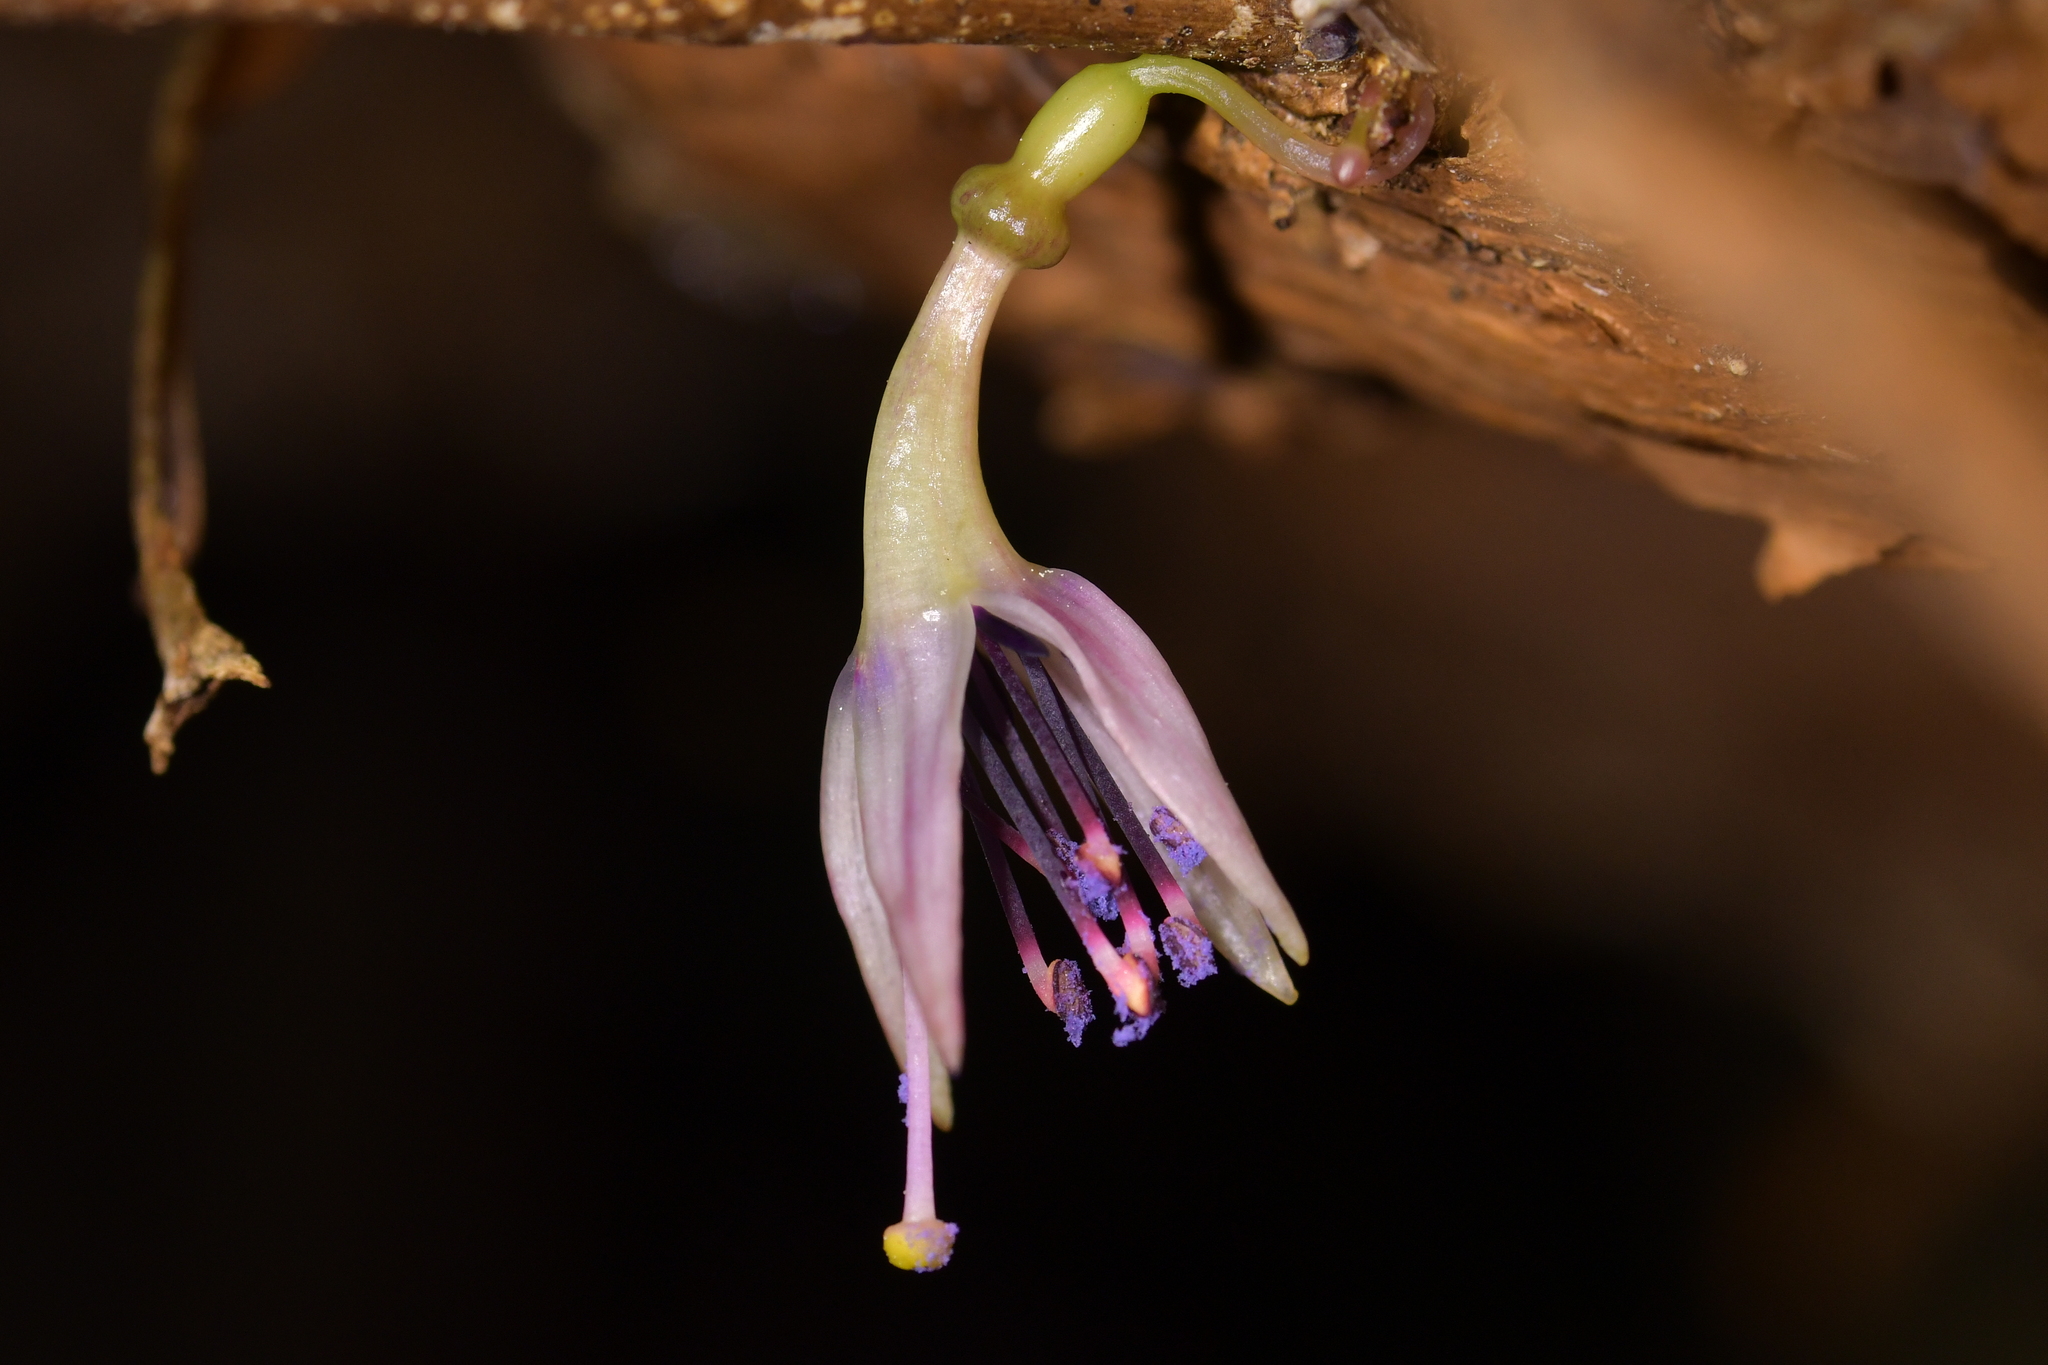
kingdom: Plantae
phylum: Tracheophyta
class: Magnoliopsida
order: Myrtales
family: Onagraceae
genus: Fuchsia
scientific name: Fuchsia excorticata
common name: Tree fuchsia
